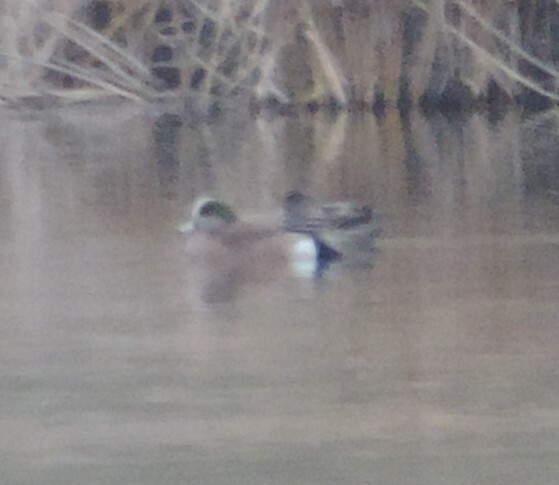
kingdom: Animalia
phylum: Chordata
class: Aves
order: Anseriformes
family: Anatidae
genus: Mareca
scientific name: Mareca americana
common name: American wigeon
